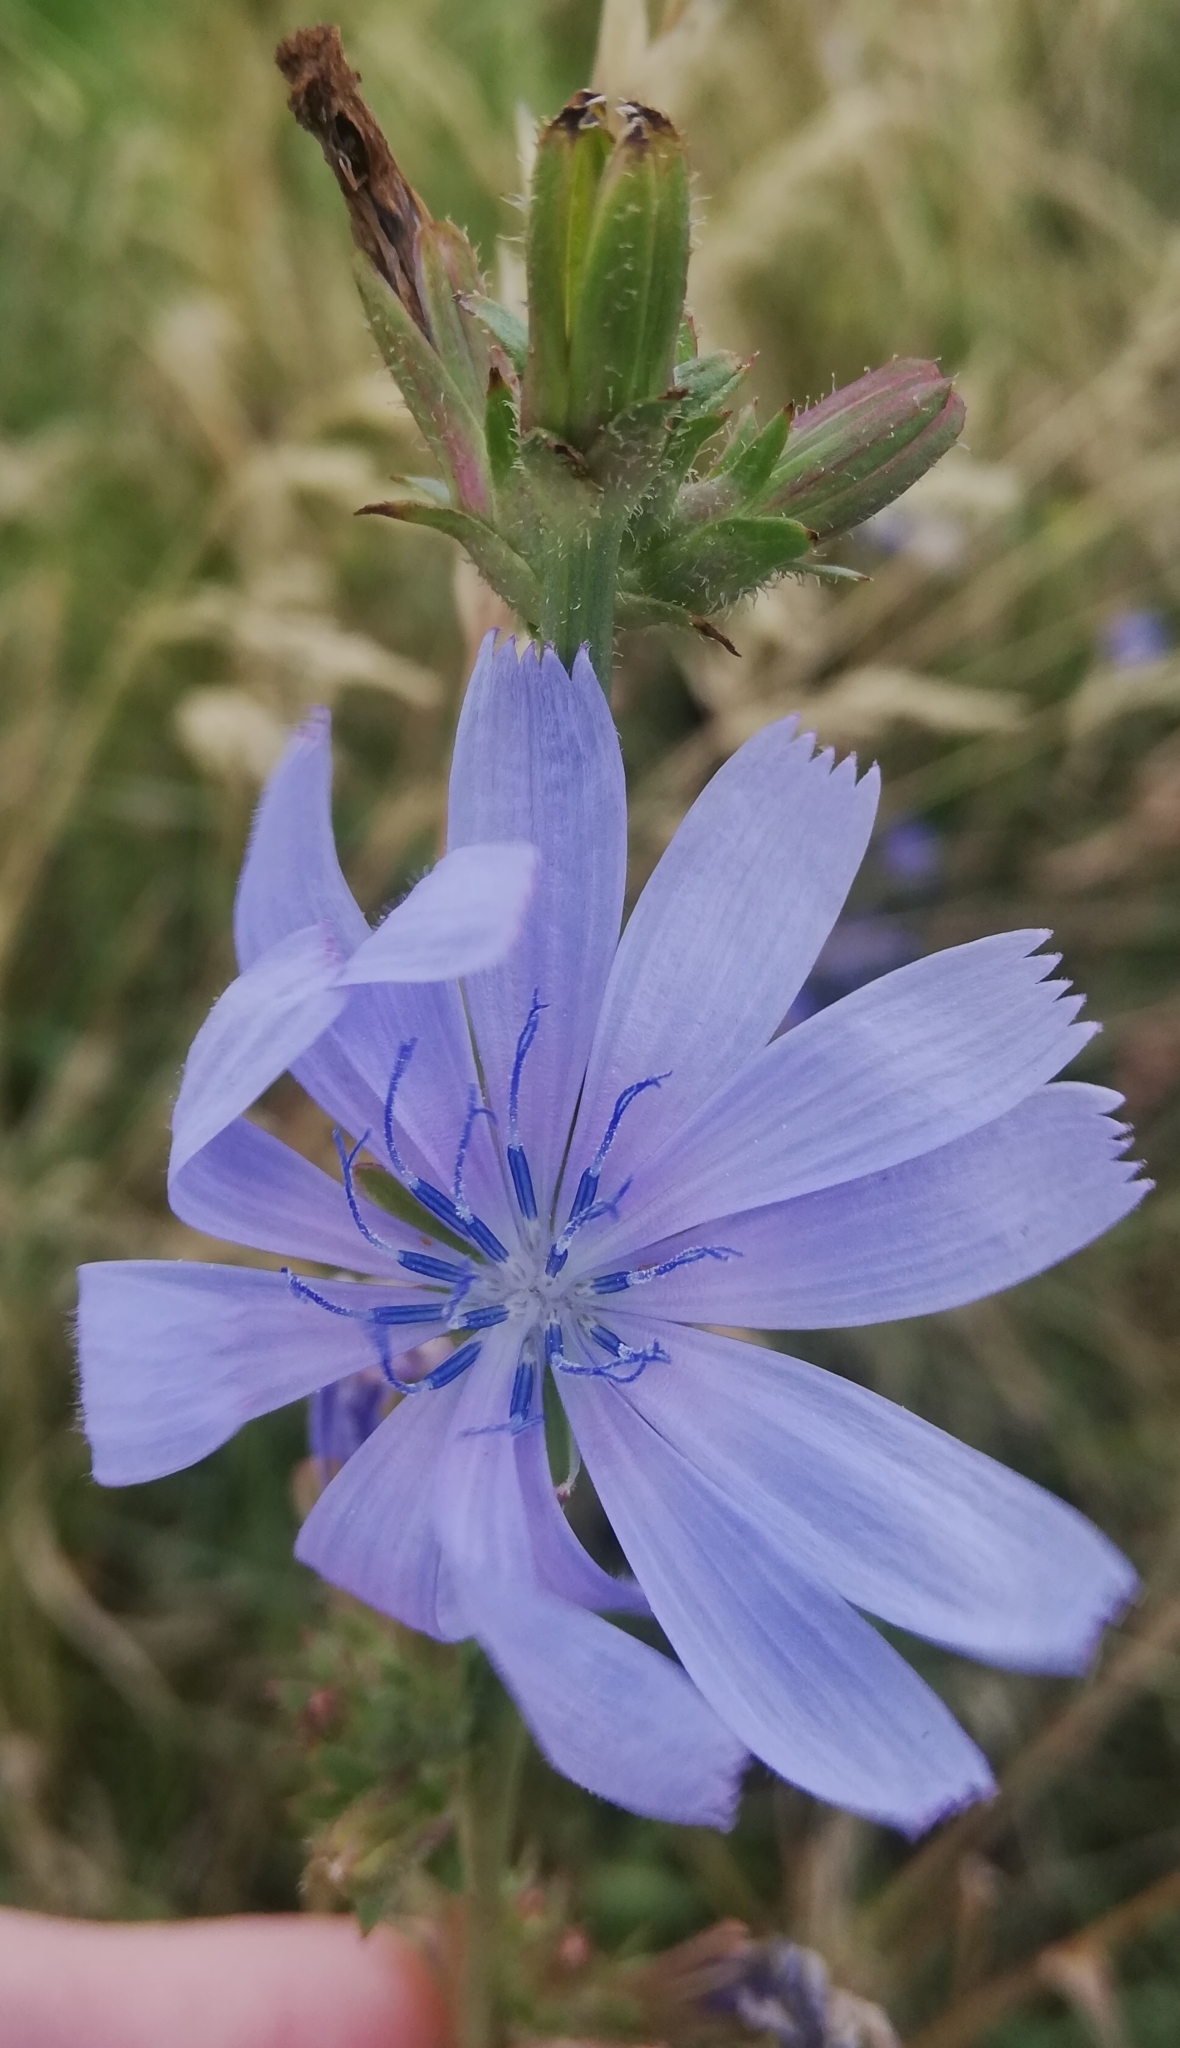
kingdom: Plantae
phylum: Tracheophyta
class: Magnoliopsida
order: Asterales
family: Asteraceae
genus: Cichorium
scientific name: Cichorium intybus
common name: Chicory
